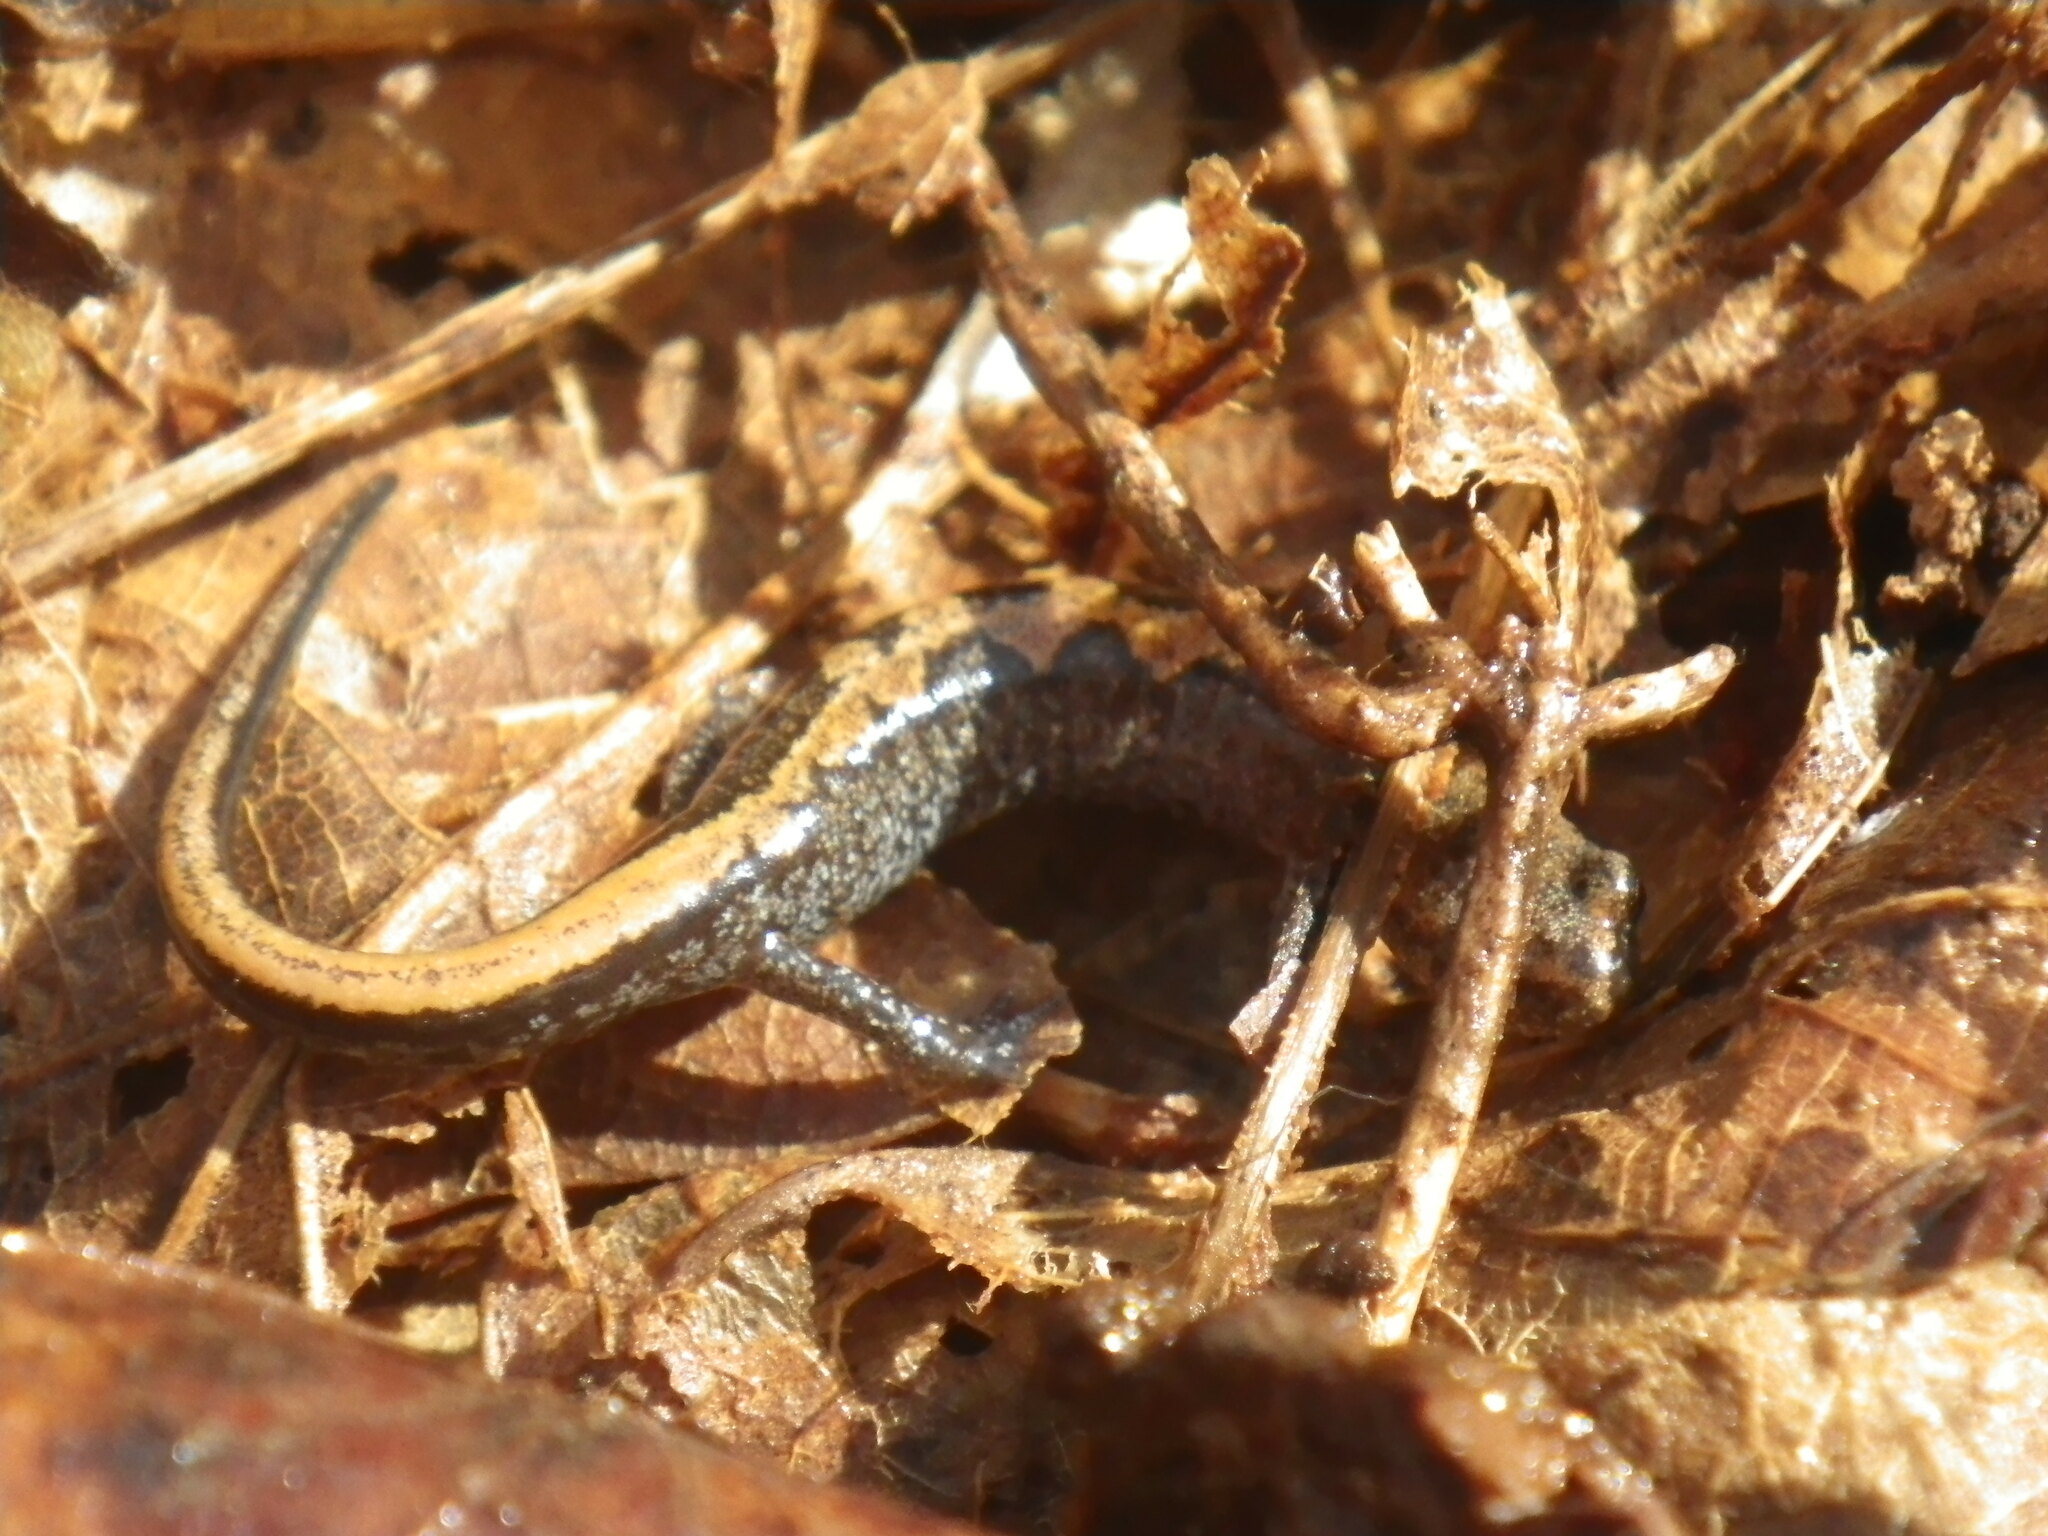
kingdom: Animalia
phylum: Chordata
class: Amphibia
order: Caudata
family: Plethodontidae
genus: Plethodon
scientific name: Plethodon dorsalis
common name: Northern zigzag salamander
